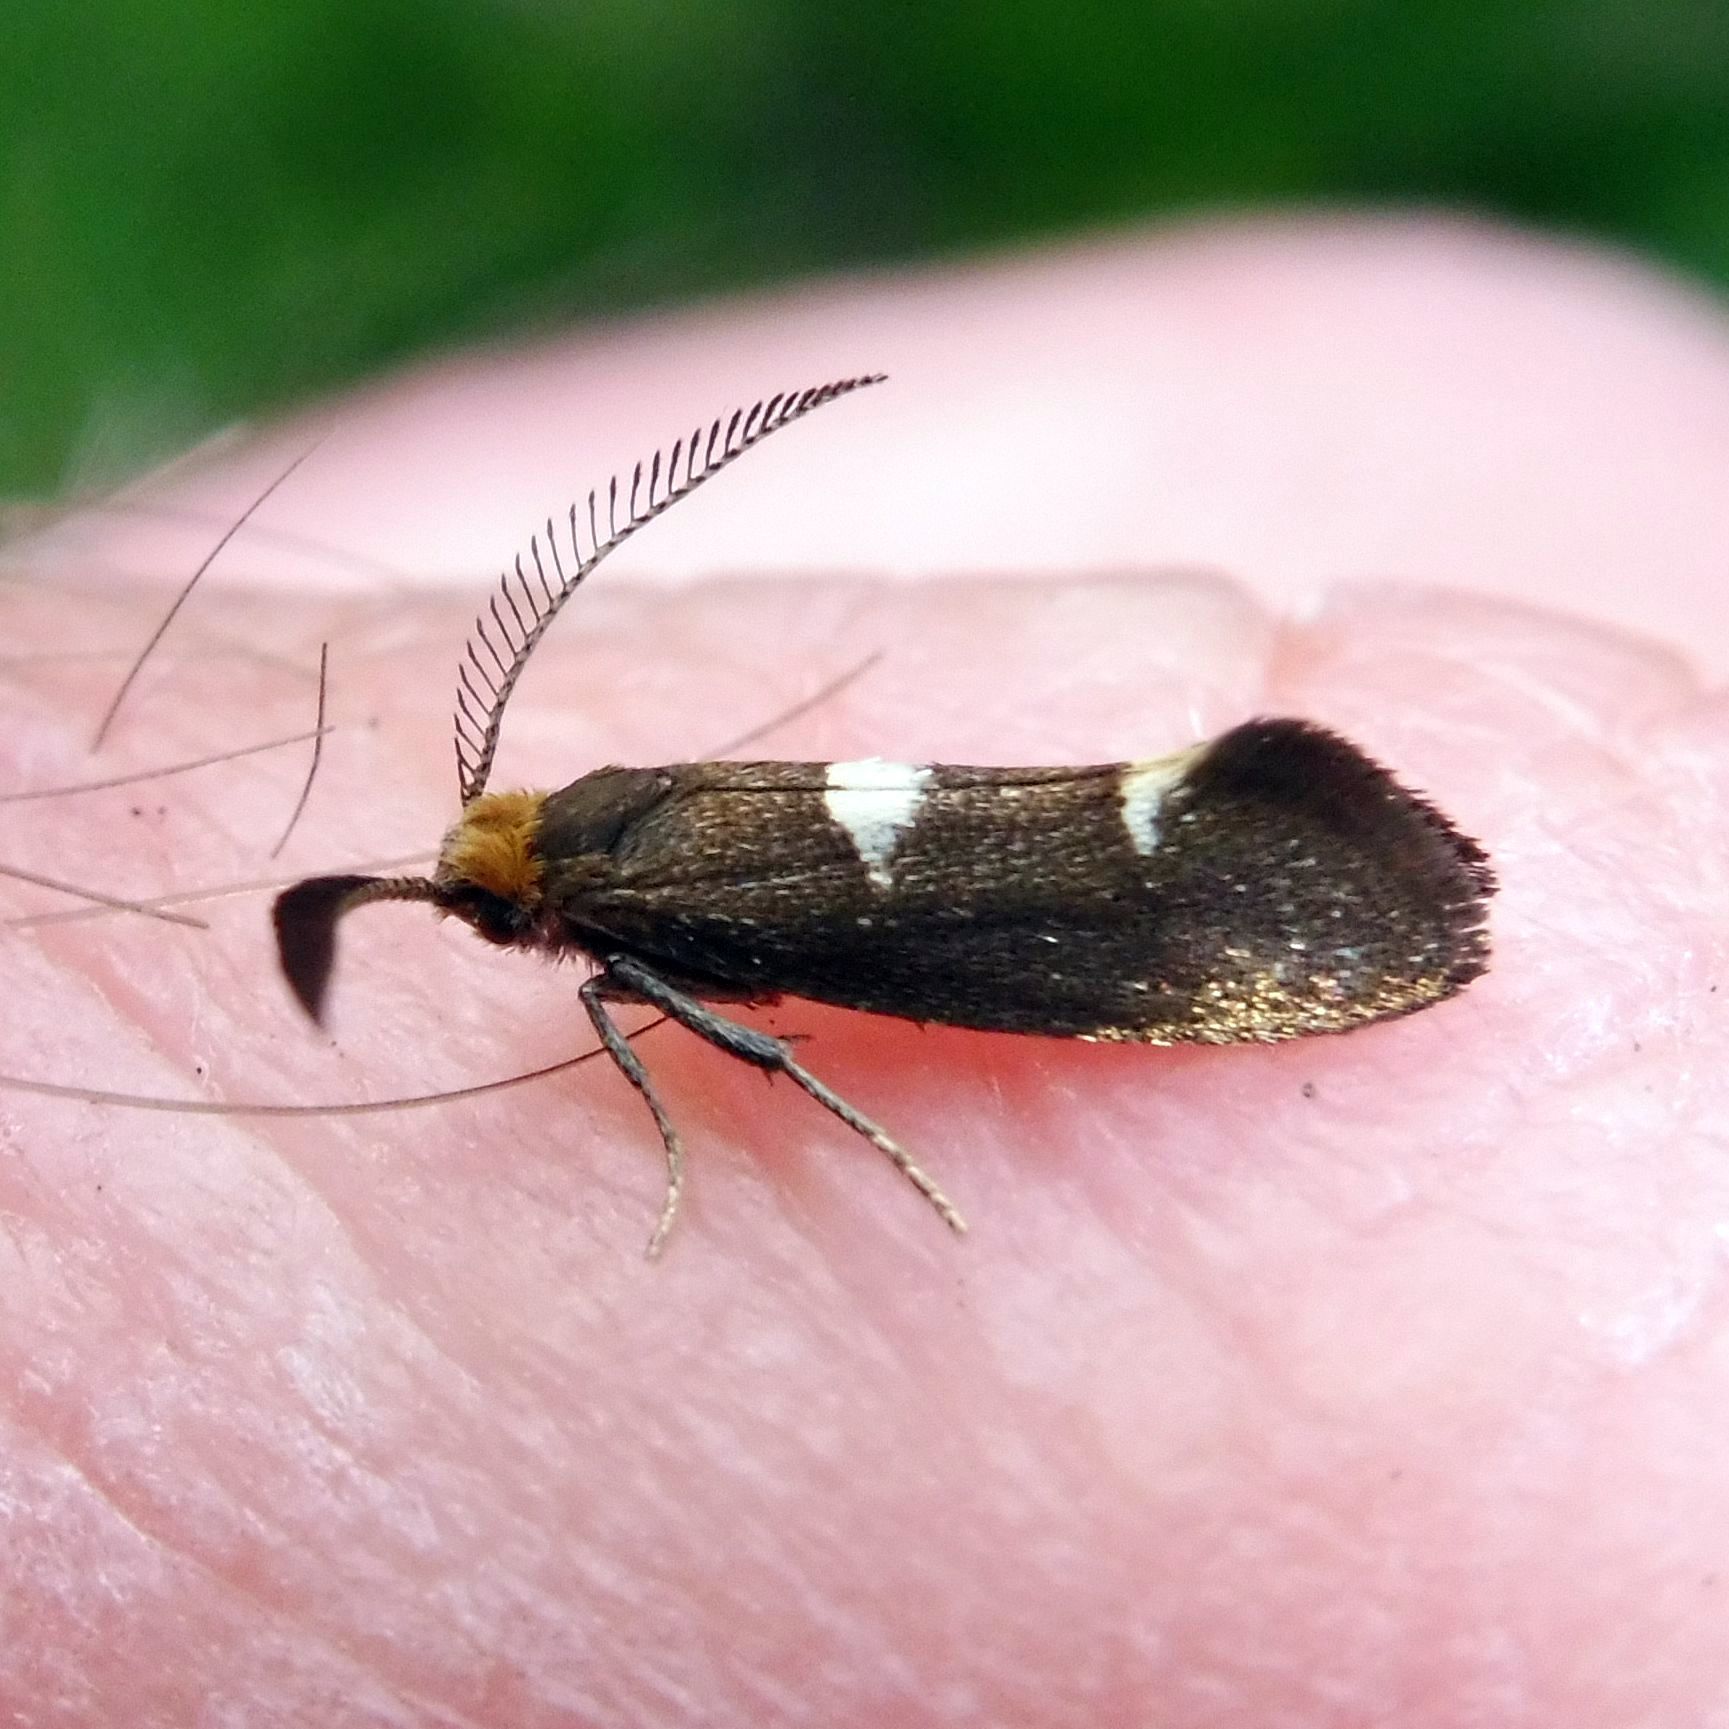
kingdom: Animalia
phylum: Arthropoda
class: Insecta
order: Lepidoptera
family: Incurvariidae
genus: Incurvaria
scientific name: Incurvaria masculella
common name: Feathered leaf-cutter
